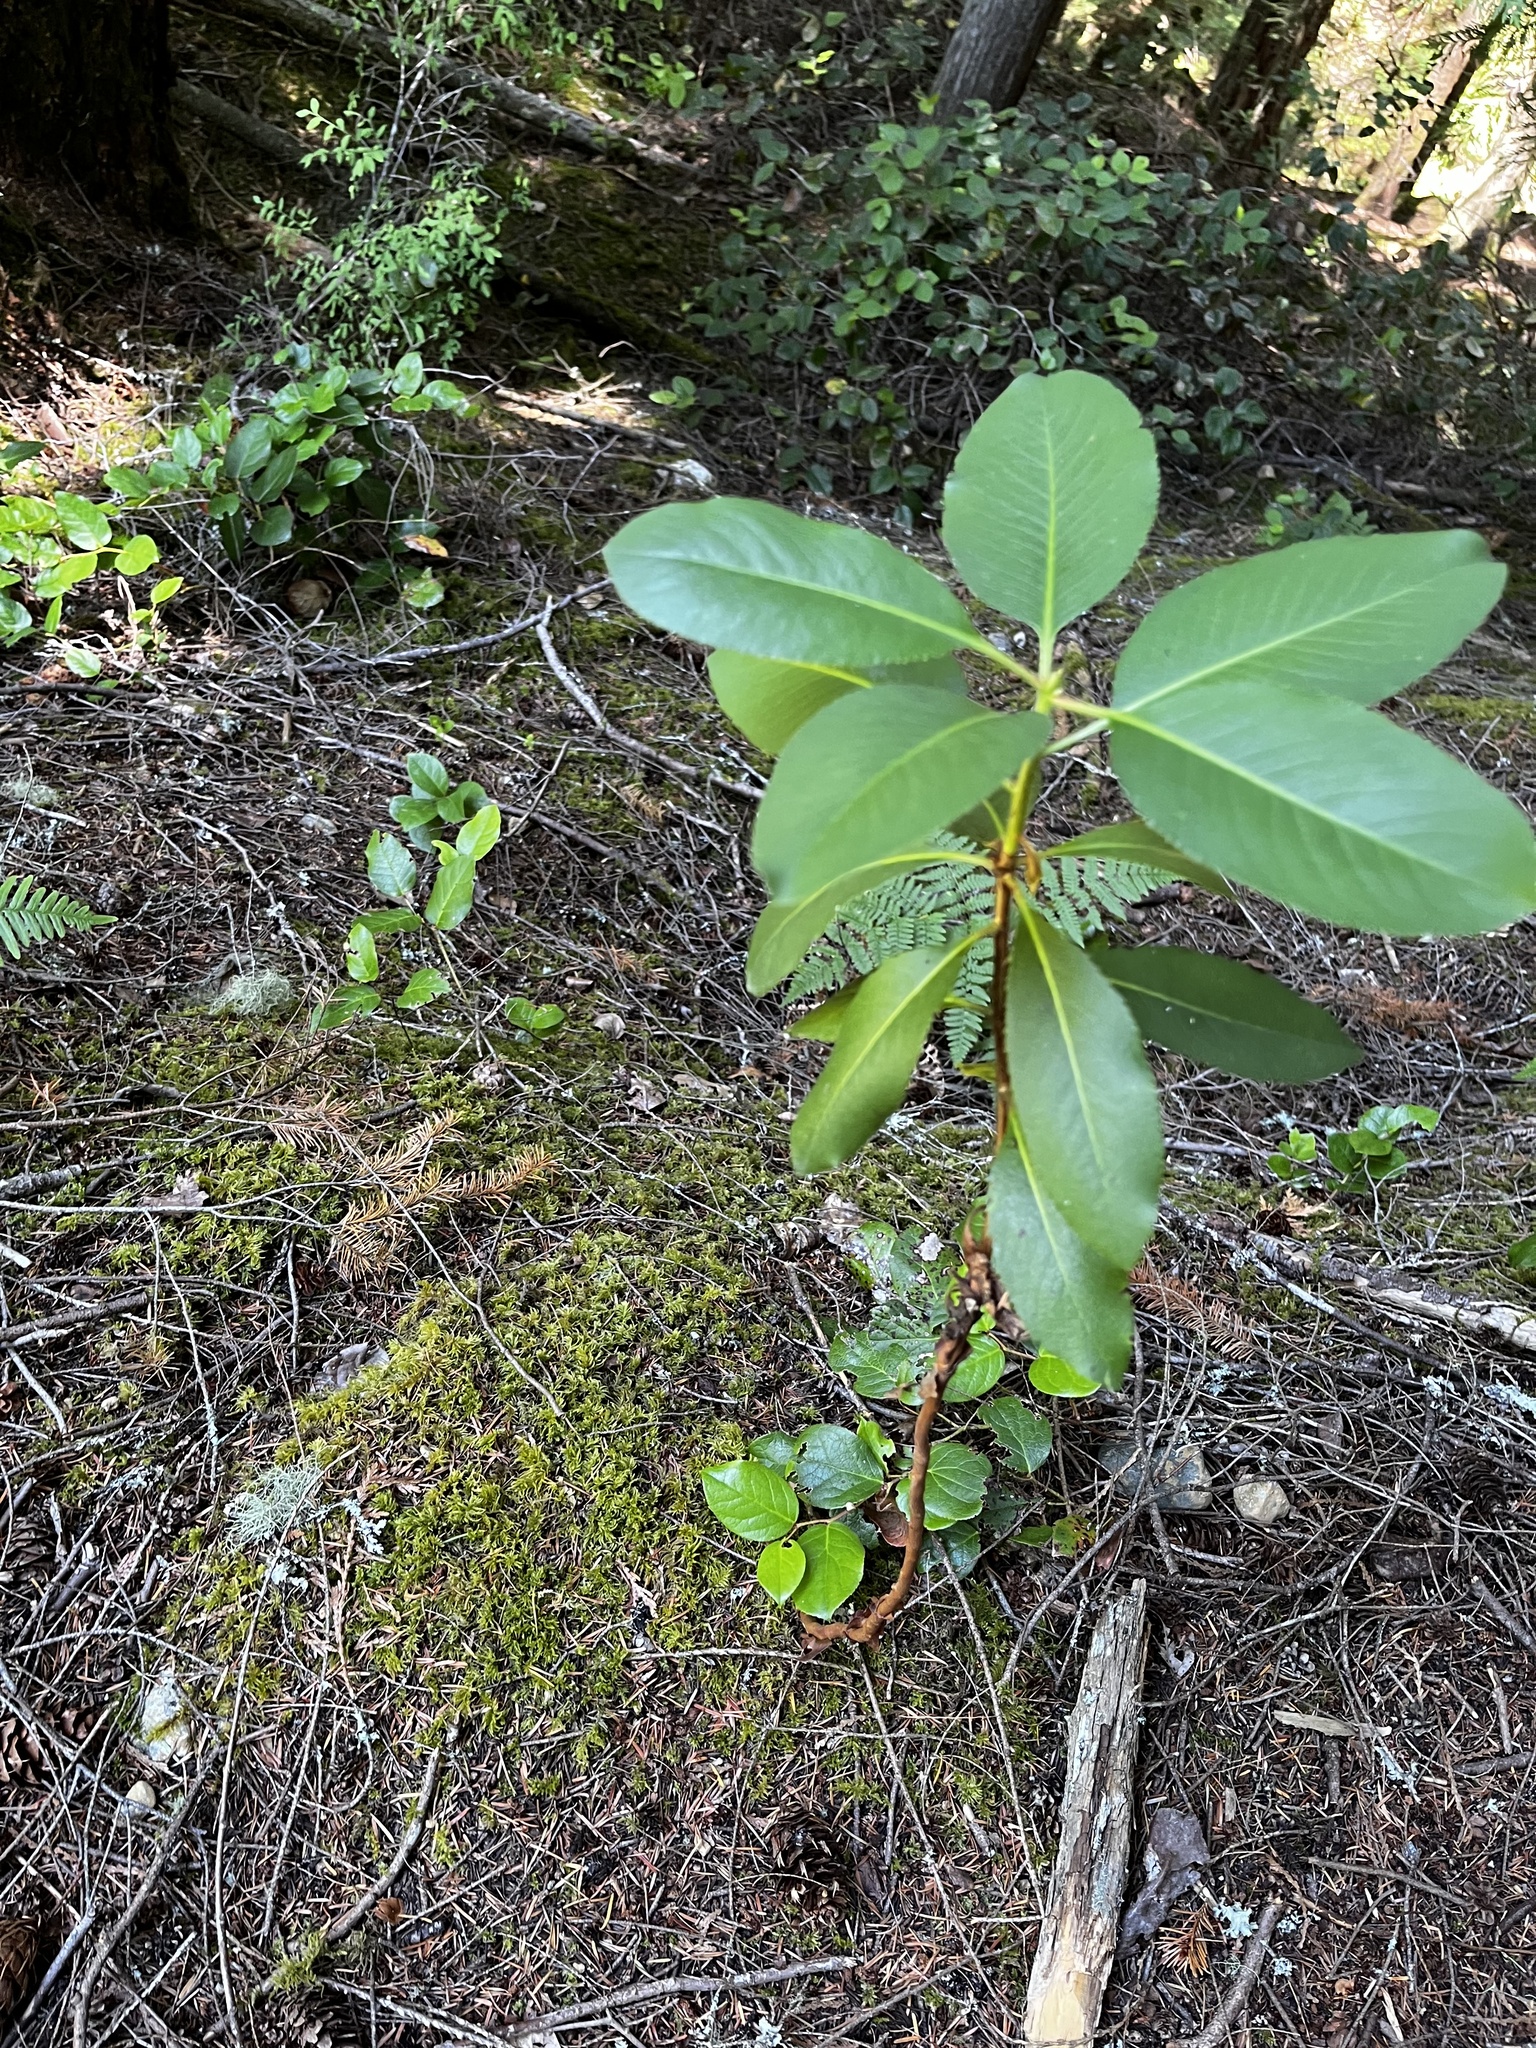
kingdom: Plantae
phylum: Tracheophyta
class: Magnoliopsida
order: Ericales
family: Ericaceae
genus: Arbutus
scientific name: Arbutus menziesii
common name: Pacific madrone
